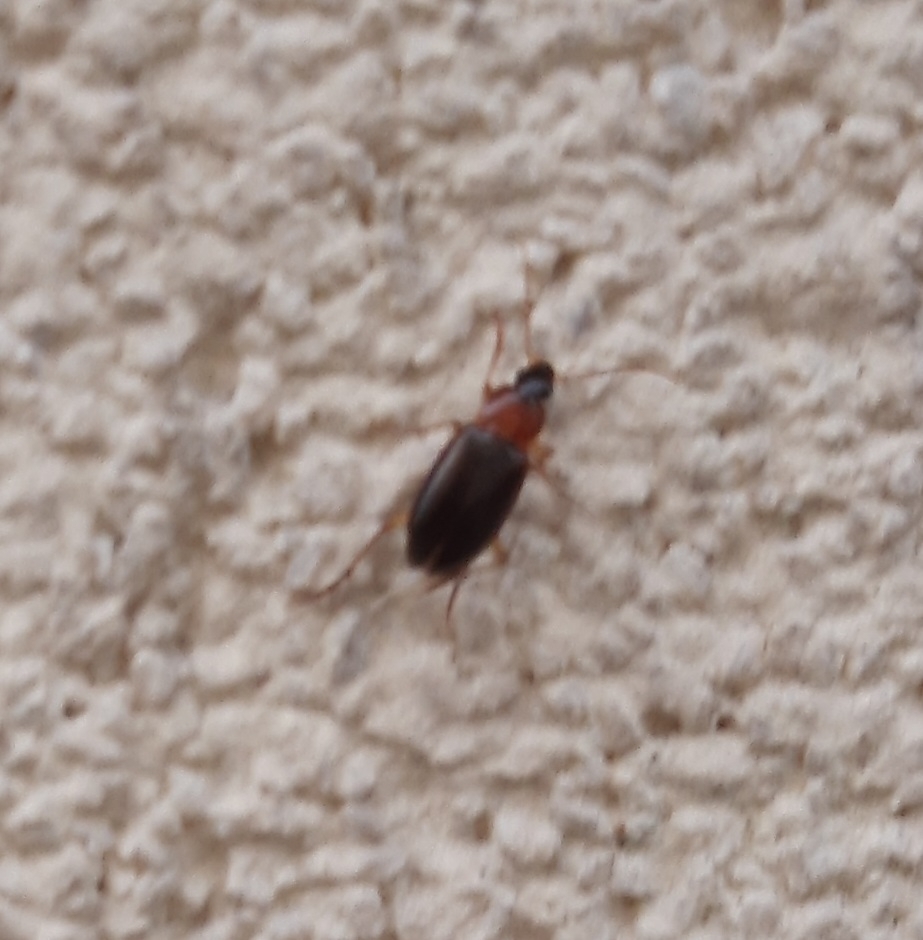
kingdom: Animalia
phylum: Arthropoda
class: Insecta
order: Coleoptera
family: Carabidae
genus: Calathus
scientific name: Calathus
